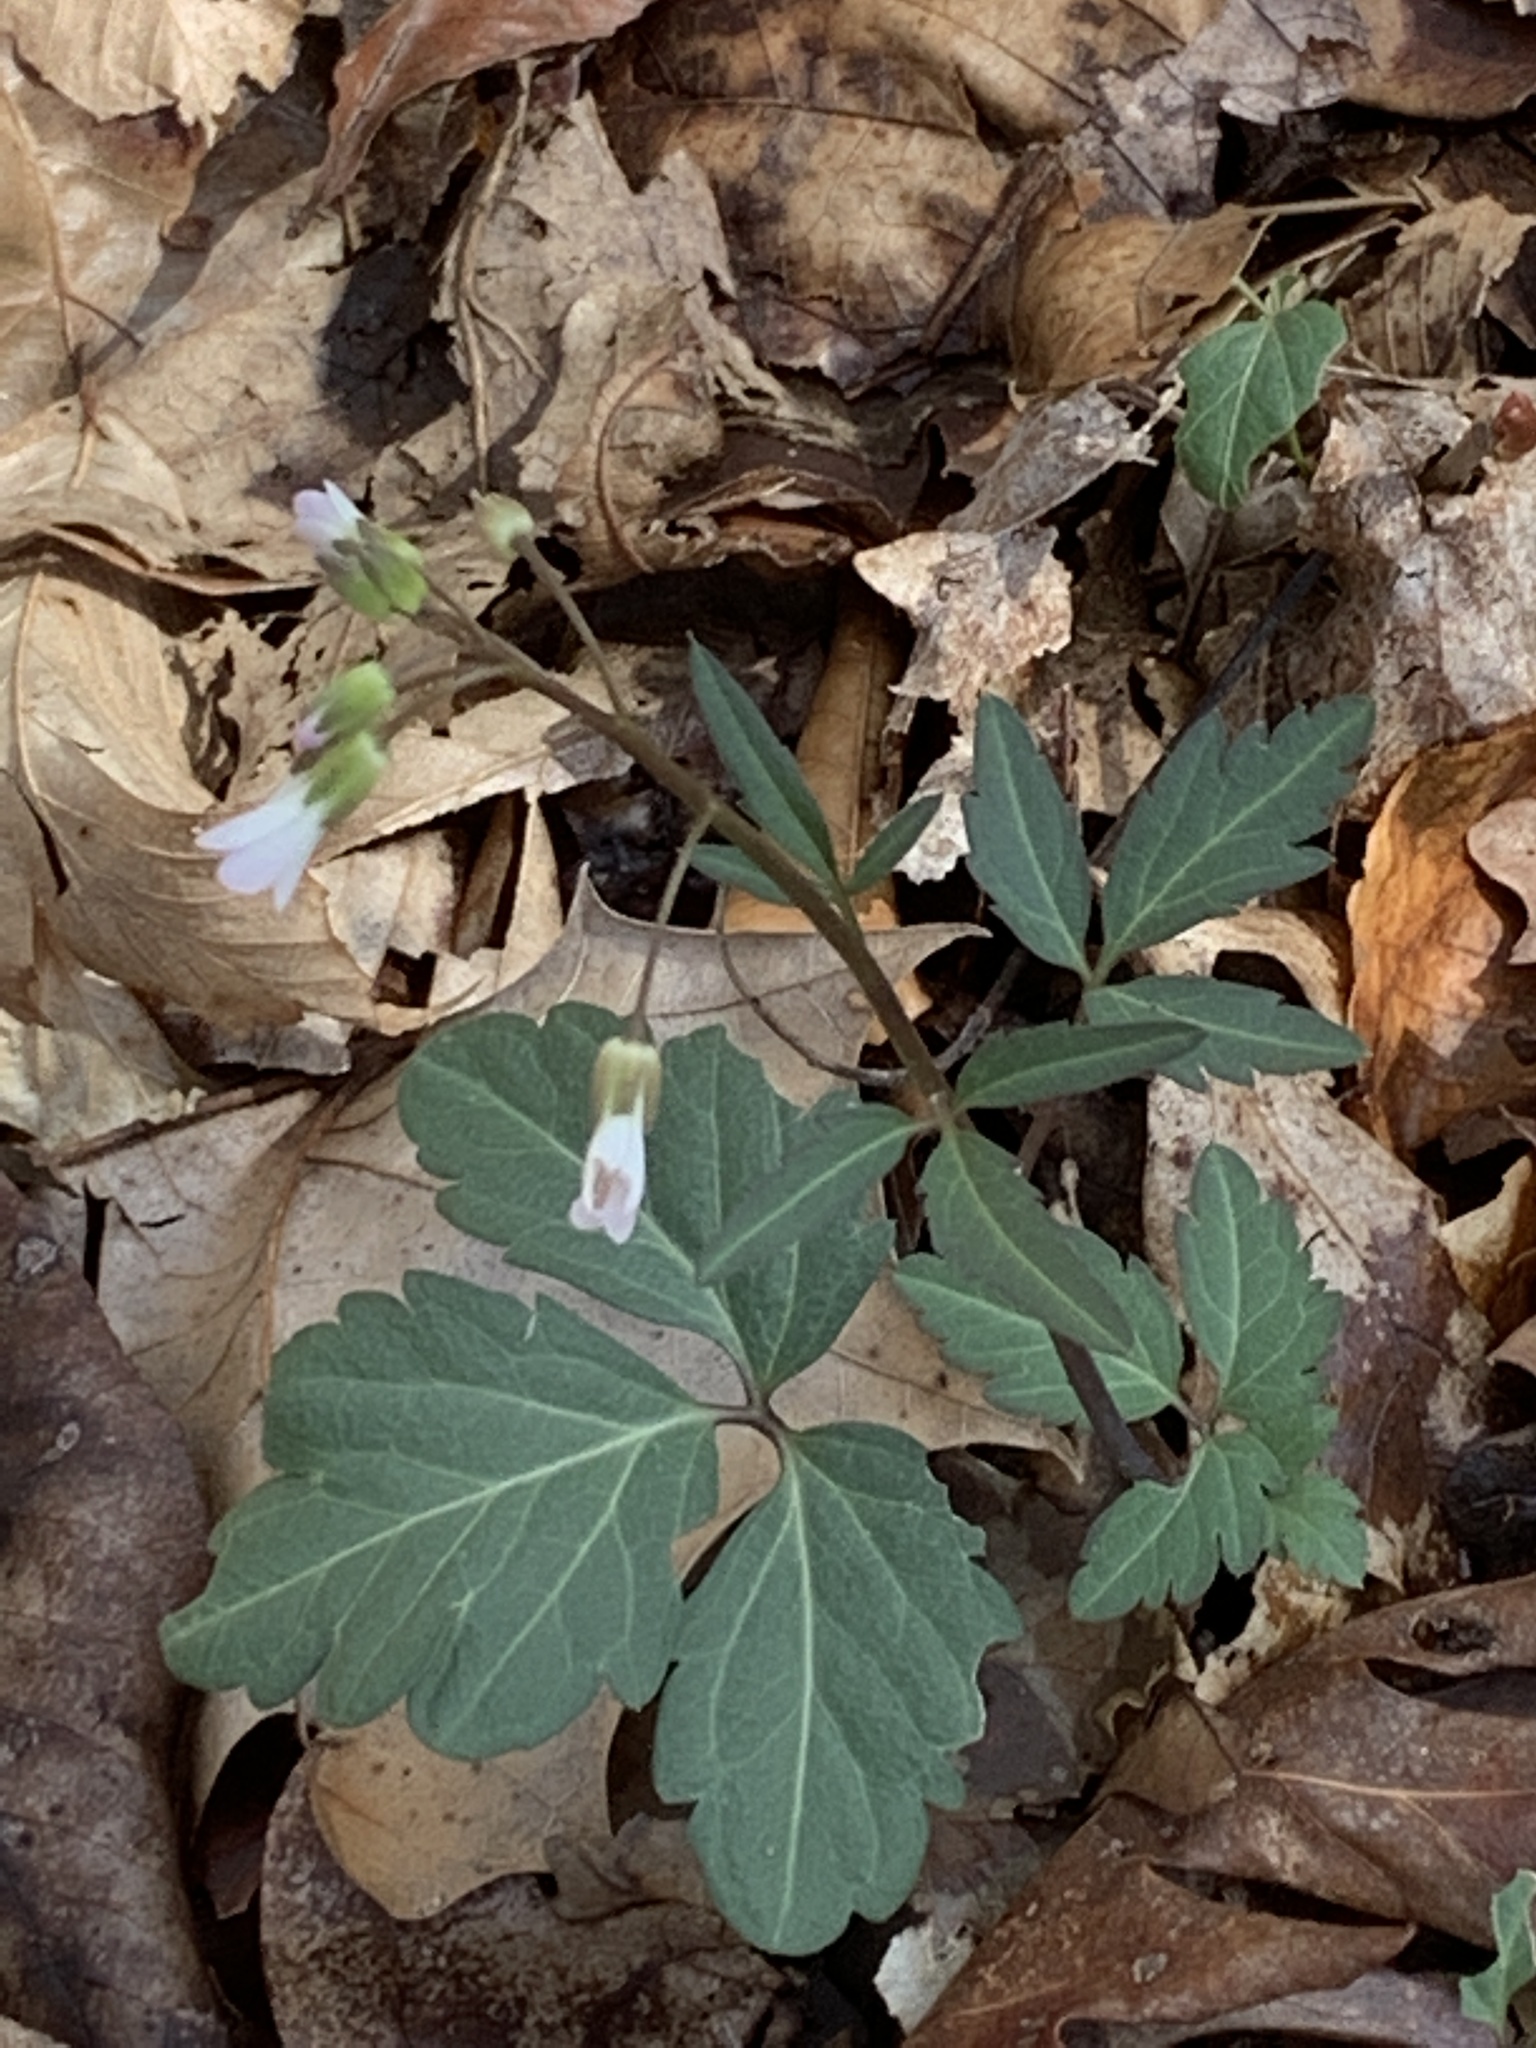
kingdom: Plantae
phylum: Tracheophyta
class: Magnoliopsida
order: Brassicales
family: Brassicaceae
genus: Cardamine
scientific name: Cardamine angustata
